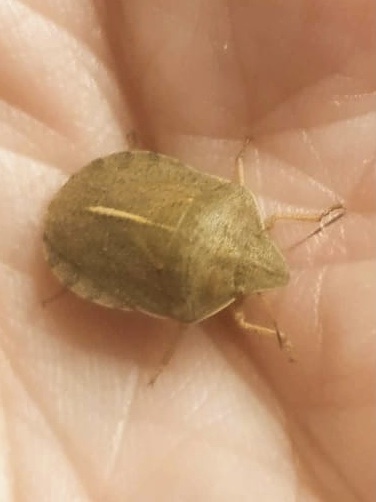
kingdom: Animalia
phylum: Arthropoda
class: Insecta
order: Hemiptera
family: Scutelleridae
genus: Eurygaster
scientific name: Eurygaster austriaca
